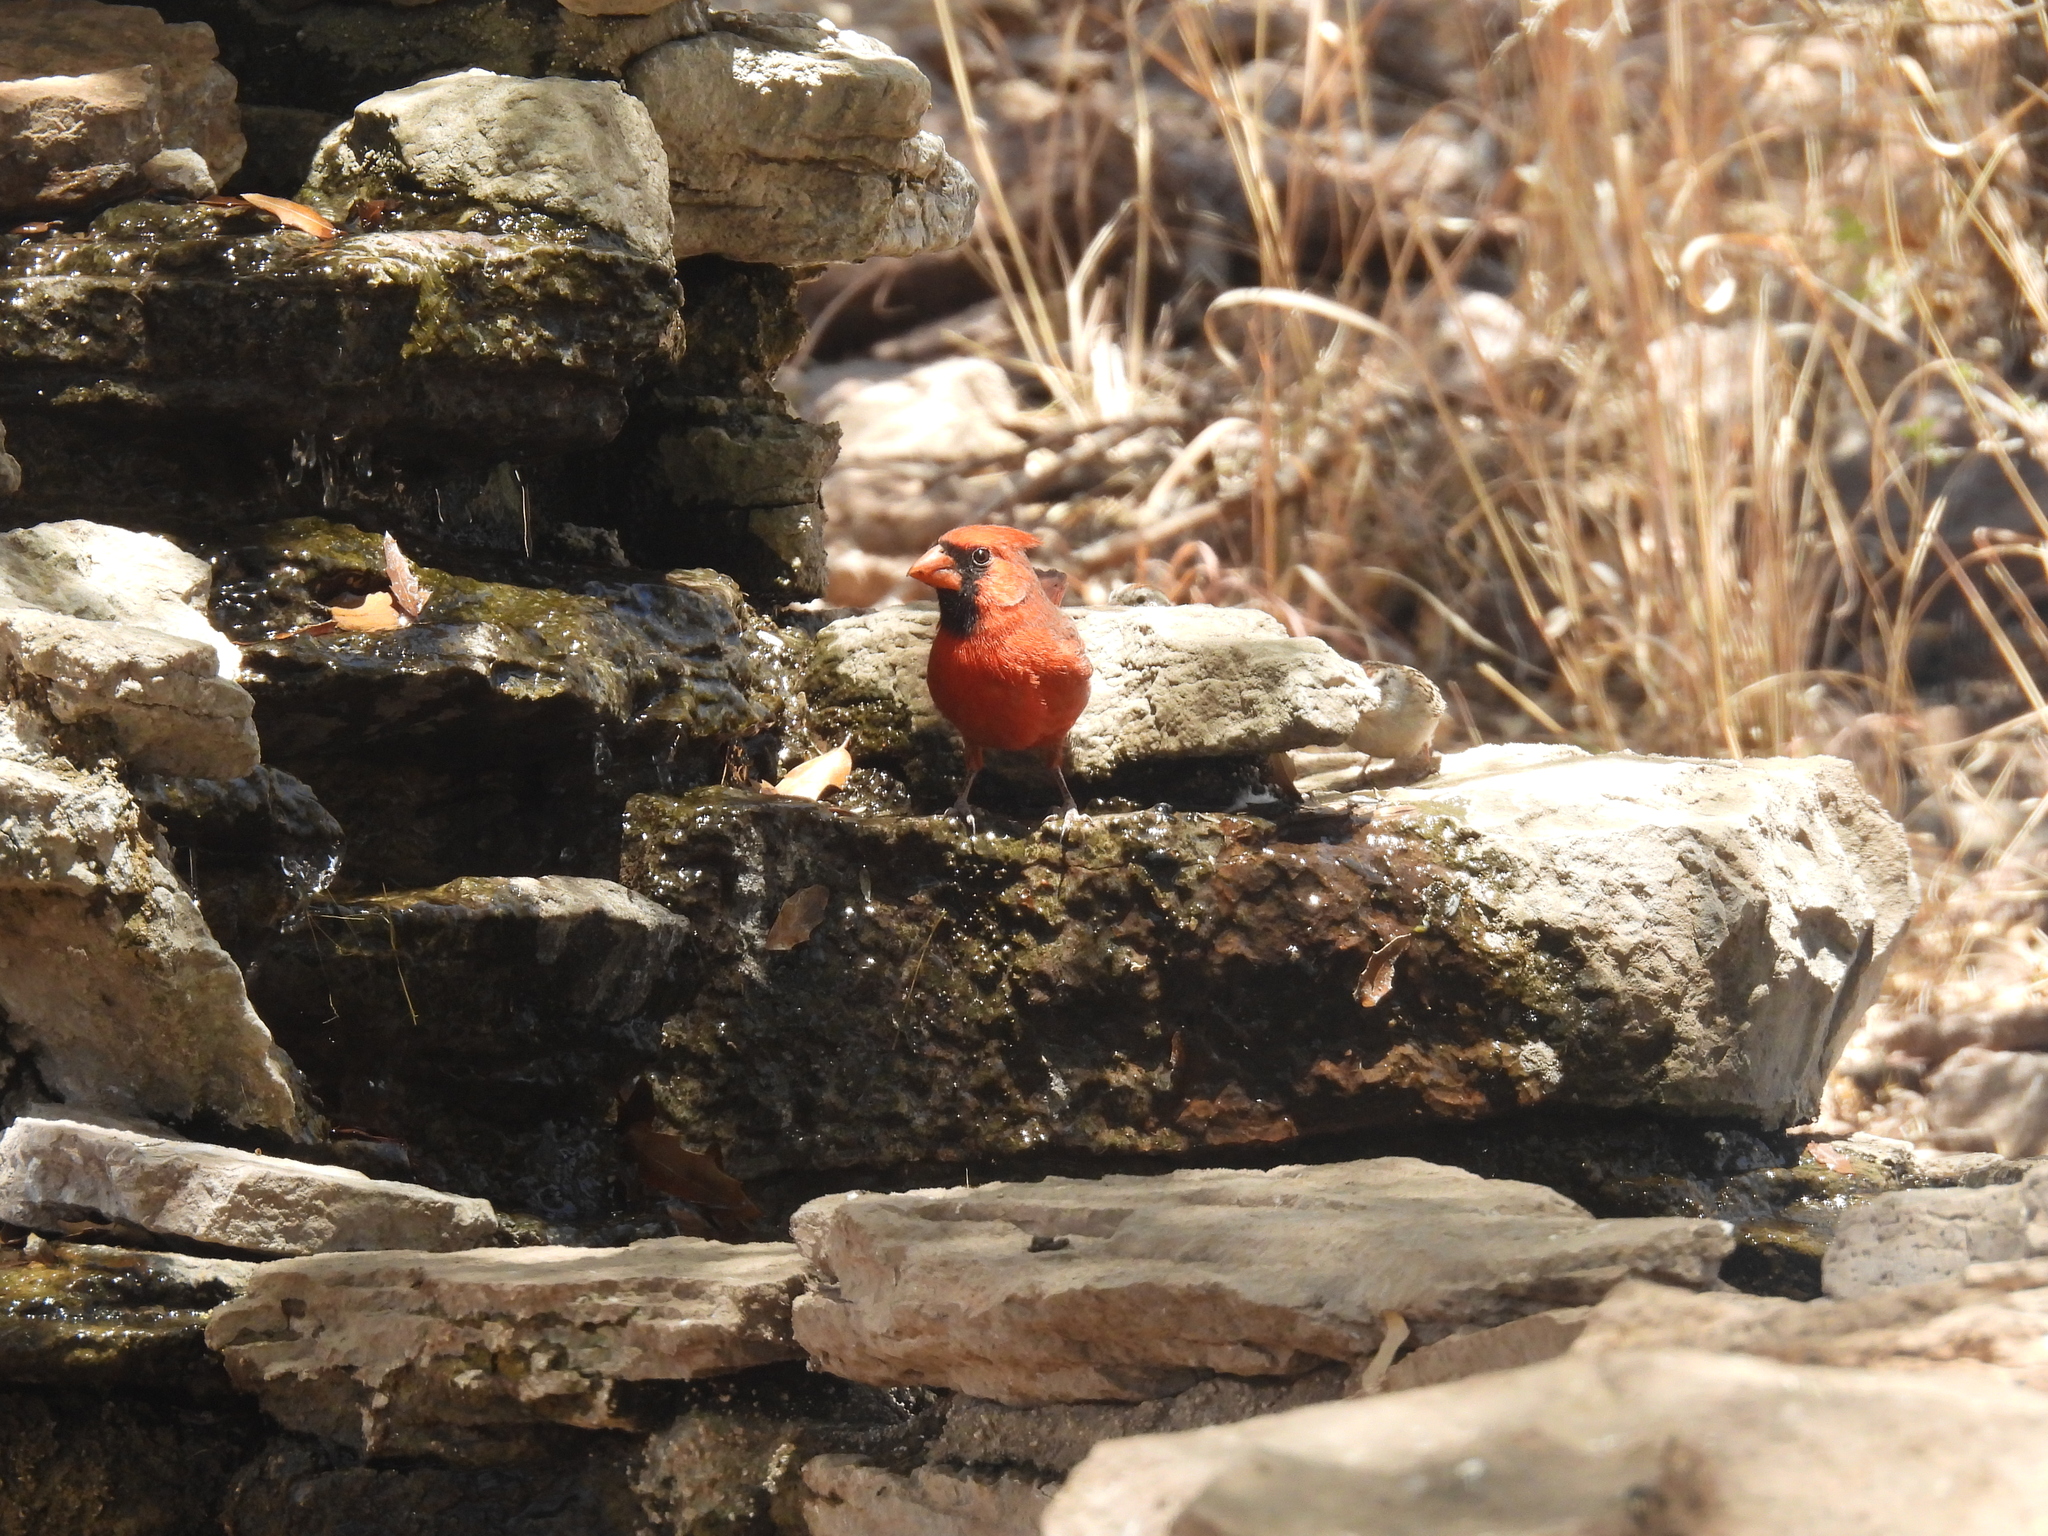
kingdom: Animalia
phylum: Chordata
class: Aves
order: Passeriformes
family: Cardinalidae
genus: Cardinalis
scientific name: Cardinalis cardinalis
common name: Northern cardinal
